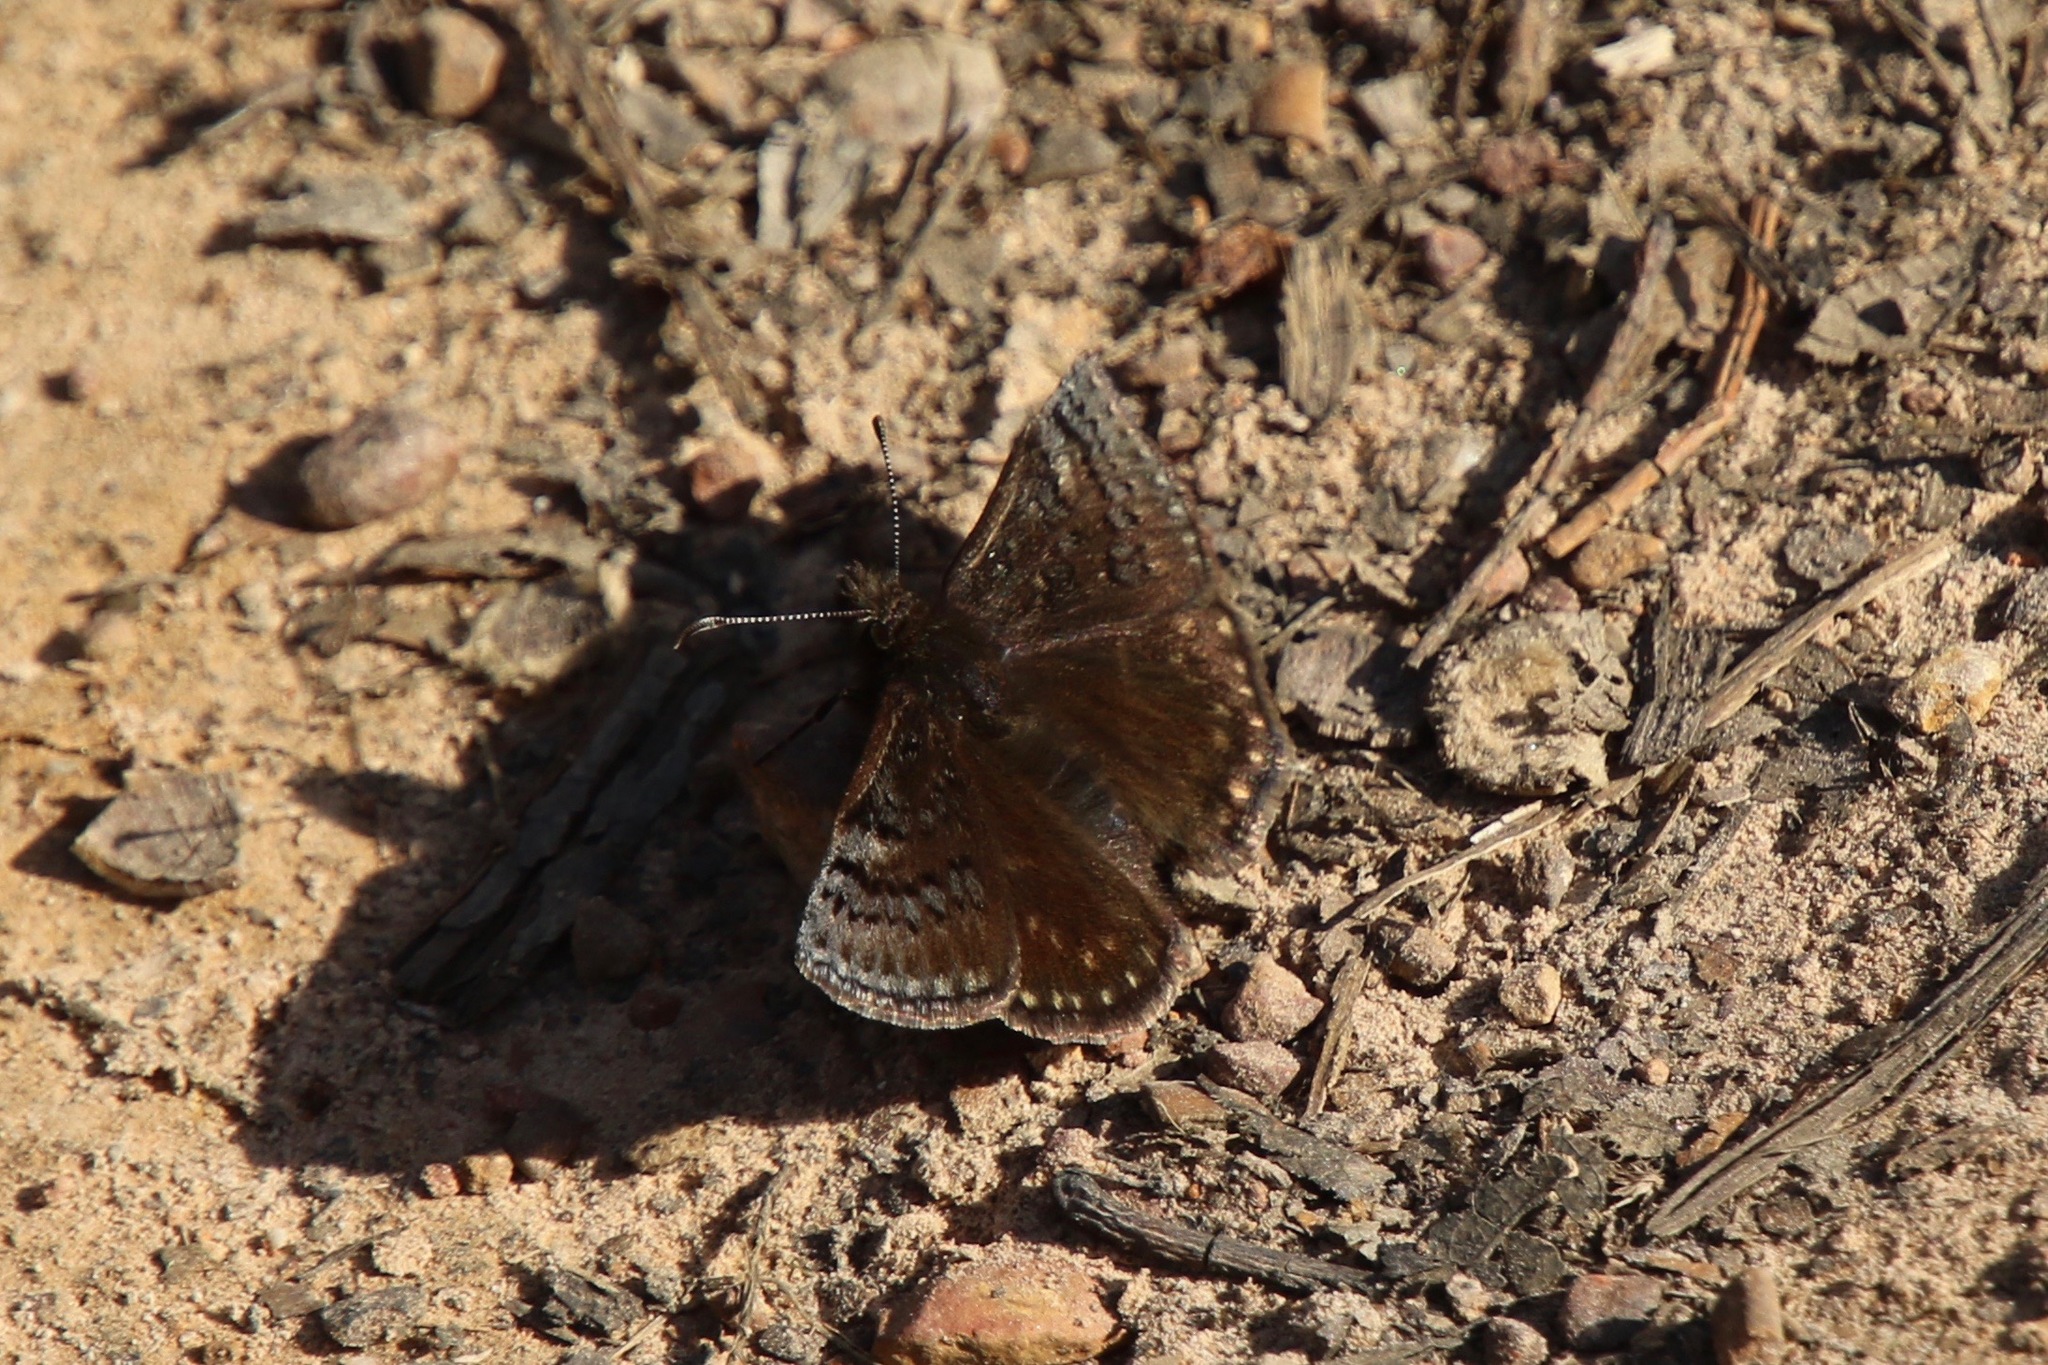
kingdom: Animalia
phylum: Arthropoda
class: Insecta
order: Lepidoptera
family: Hesperiidae
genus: Erynnis
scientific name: Erynnis brizo
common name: Sleepy duskywing
